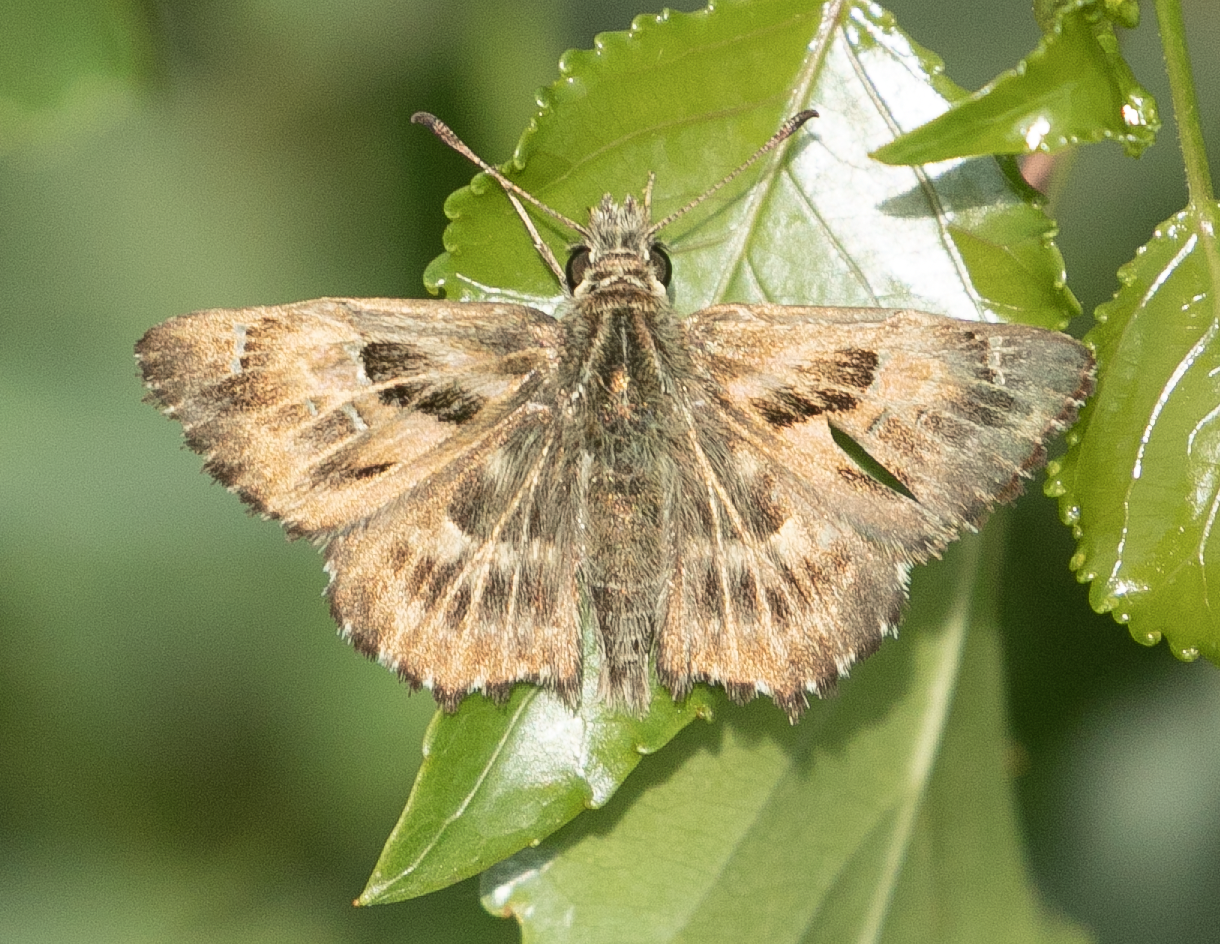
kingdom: Animalia
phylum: Arthropoda
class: Insecta
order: Lepidoptera
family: Hesperiidae
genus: Carcharodus
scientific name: Carcharodus alceae
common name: Mallow skipper
